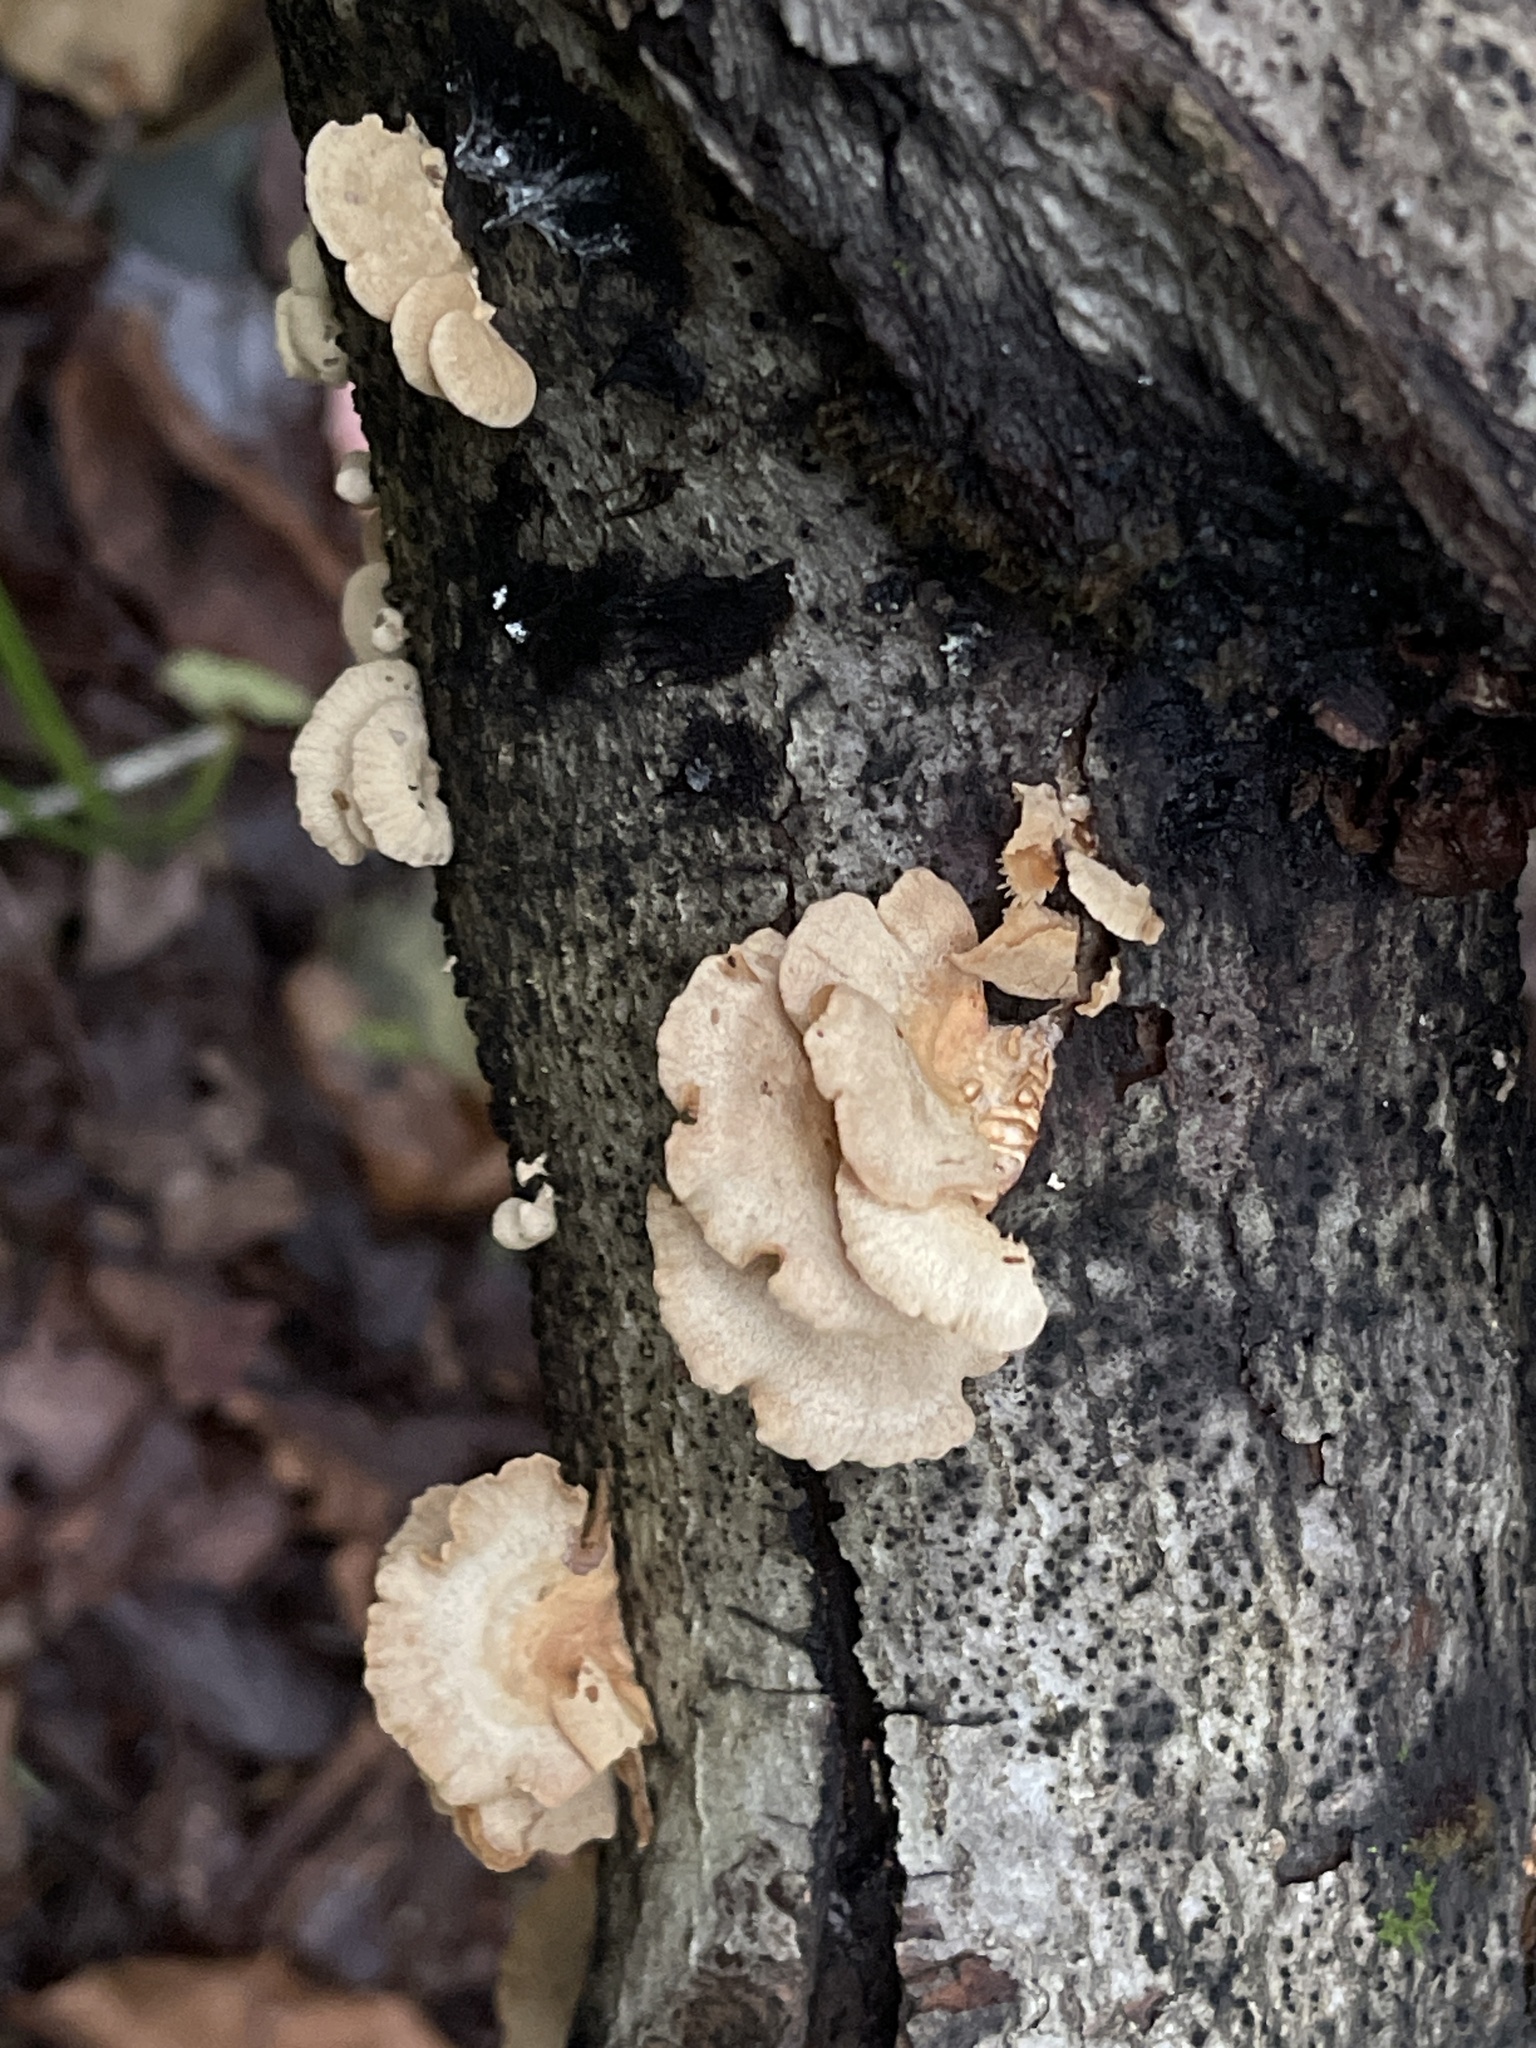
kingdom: Fungi
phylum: Basidiomycota
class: Agaricomycetes
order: Agaricales
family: Mycenaceae
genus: Panellus
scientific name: Panellus stipticus
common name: Bitter oysterling
